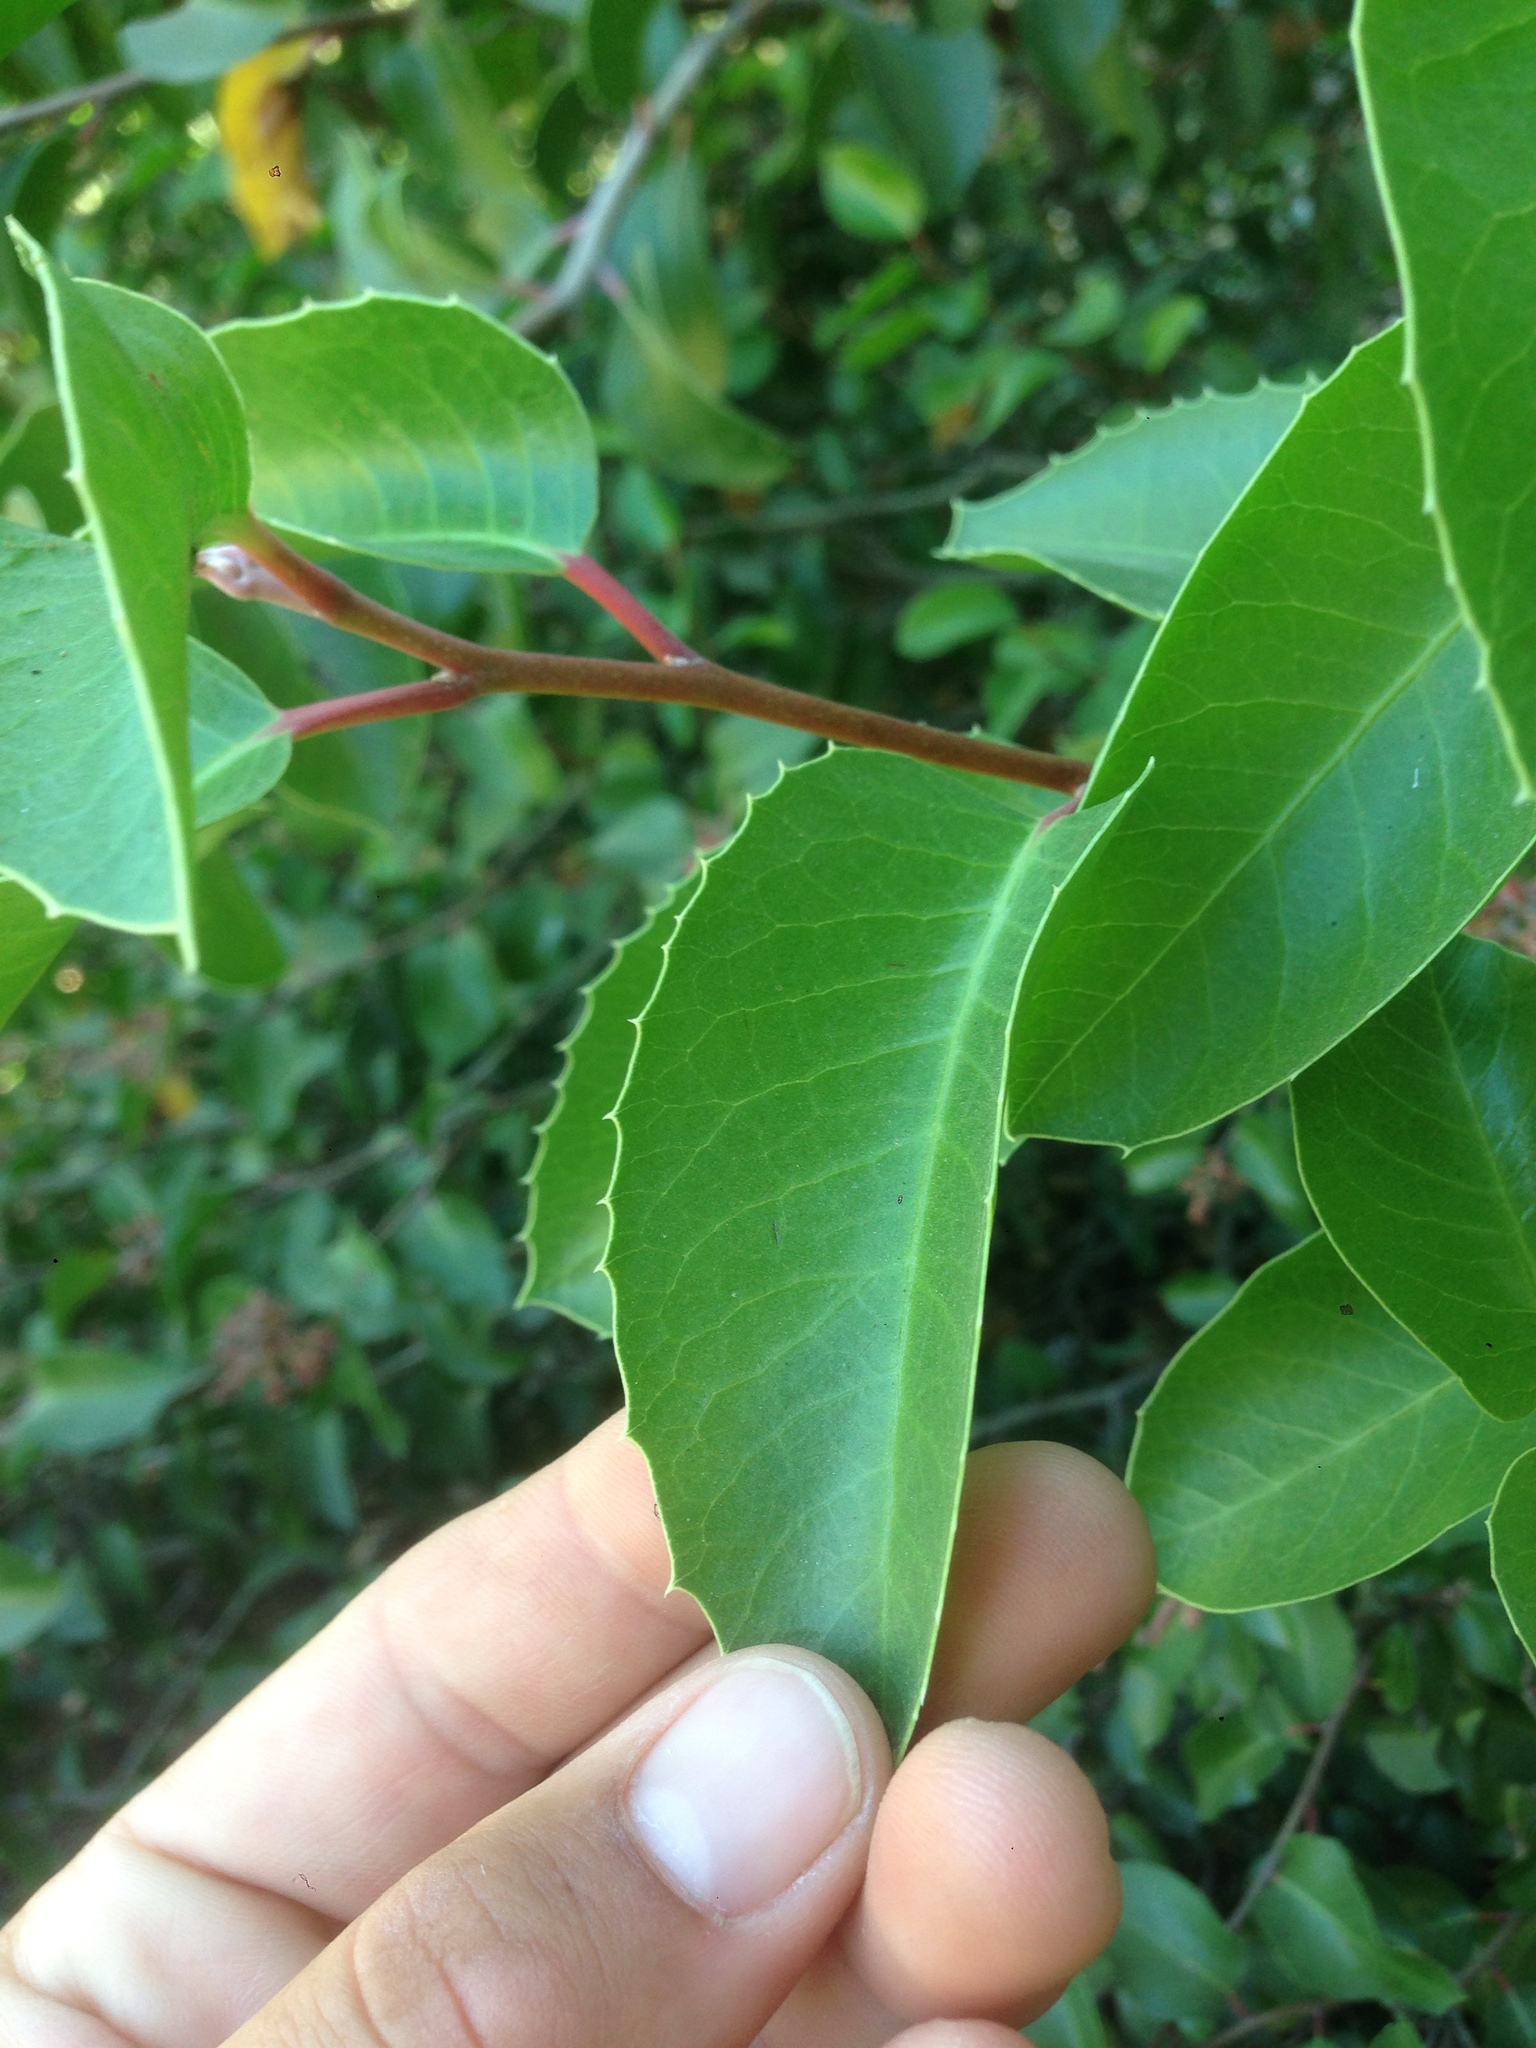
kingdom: Plantae
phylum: Tracheophyta
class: Magnoliopsida
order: Sapindales
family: Anacardiaceae
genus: Rhus
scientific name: Rhus
